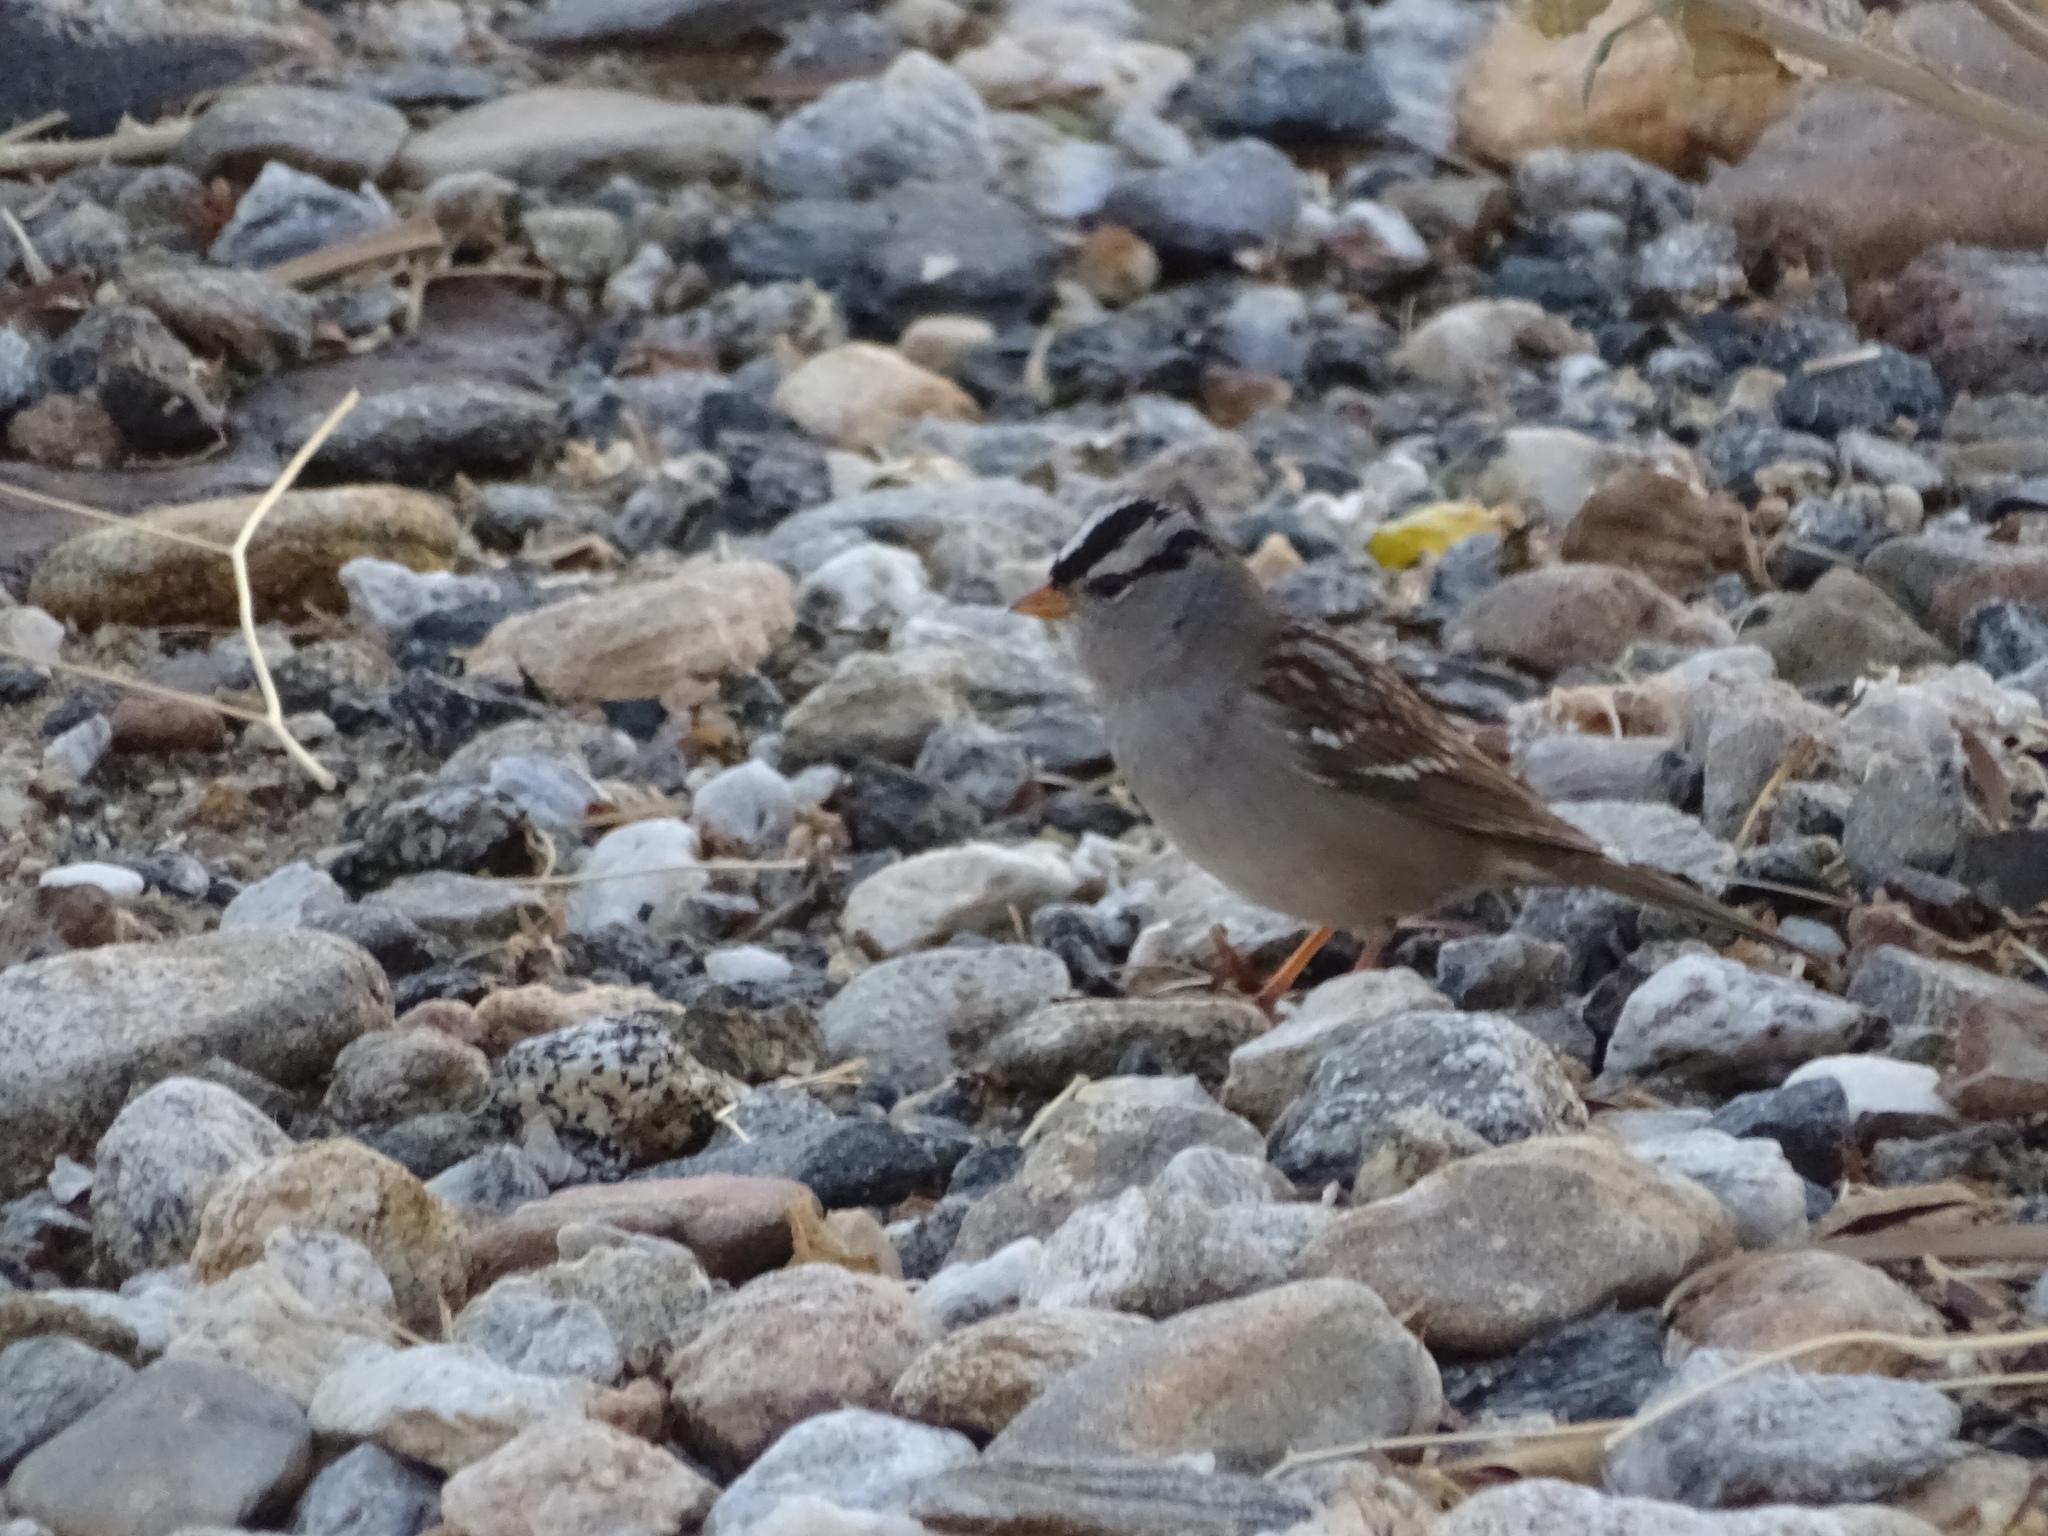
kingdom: Animalia
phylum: Chordata
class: Aves
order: Passeriformes
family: Passerellidae
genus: Zonotrichia
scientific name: Zonotrichia leucophrys
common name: White-crowned sparrow
